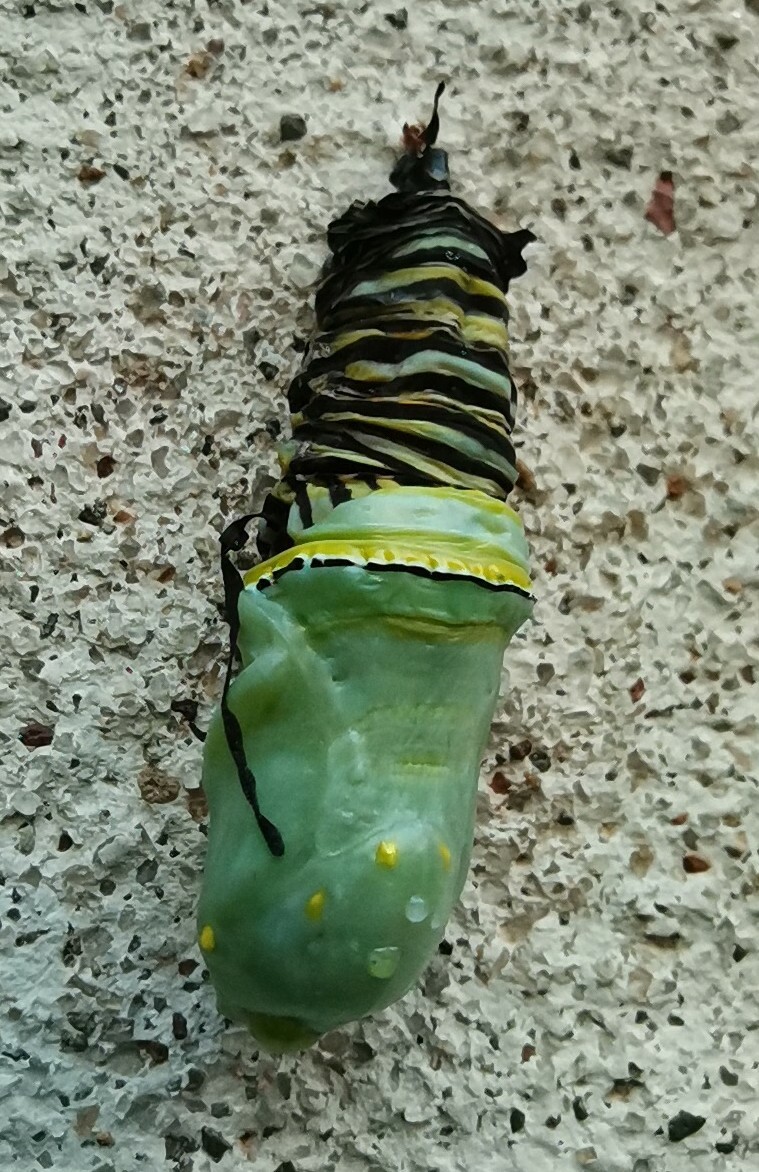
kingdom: Animalia
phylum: Arthropoda
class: Insecta
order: Lepidoptera
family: Nymphalidae
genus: Danaus
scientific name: Danaus plexippus
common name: Monarch
